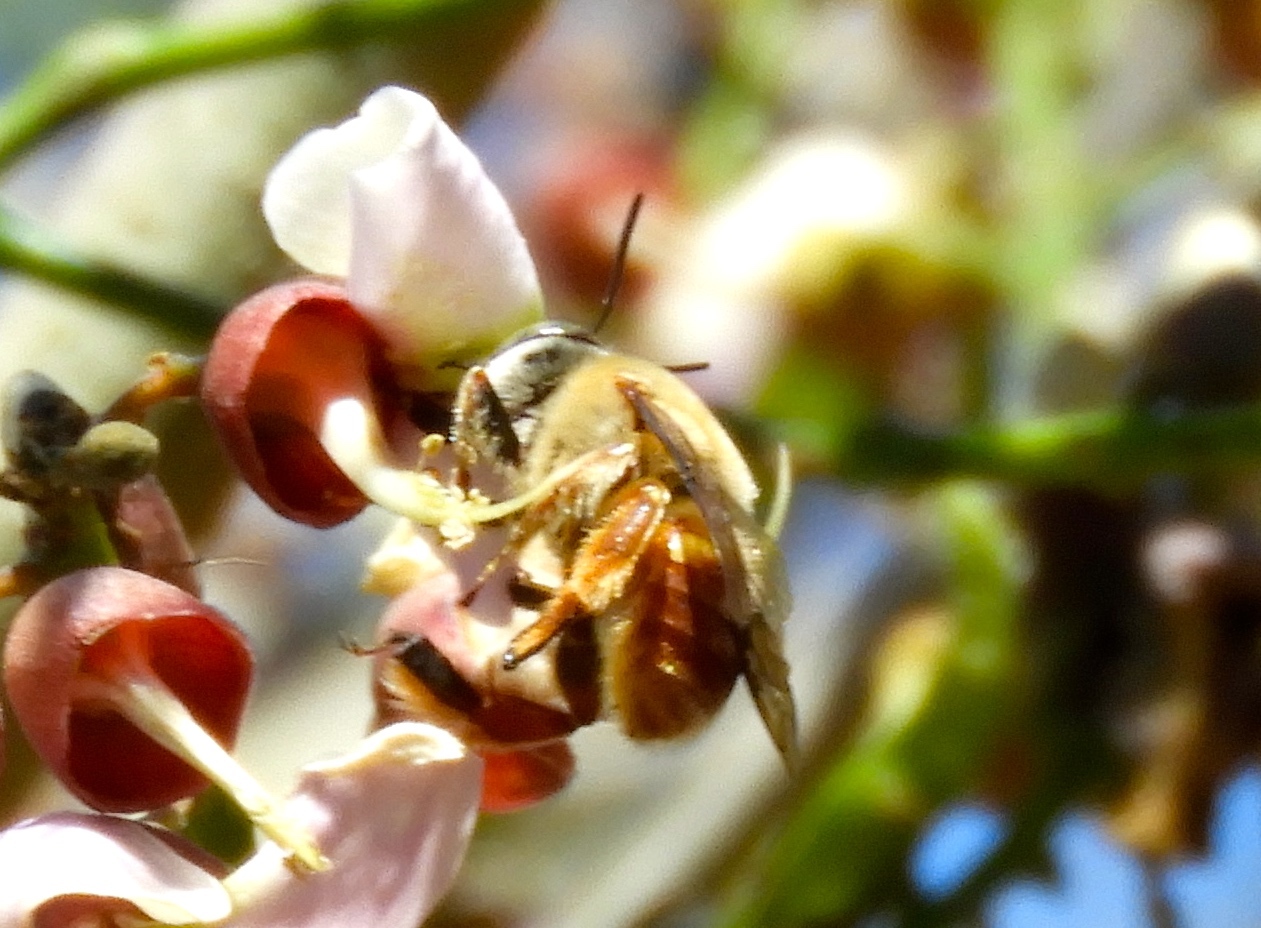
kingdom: Animalia
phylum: Arthropoda
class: Insecta
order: Hymenoptera
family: Apidae
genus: Centris
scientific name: Centris varia
